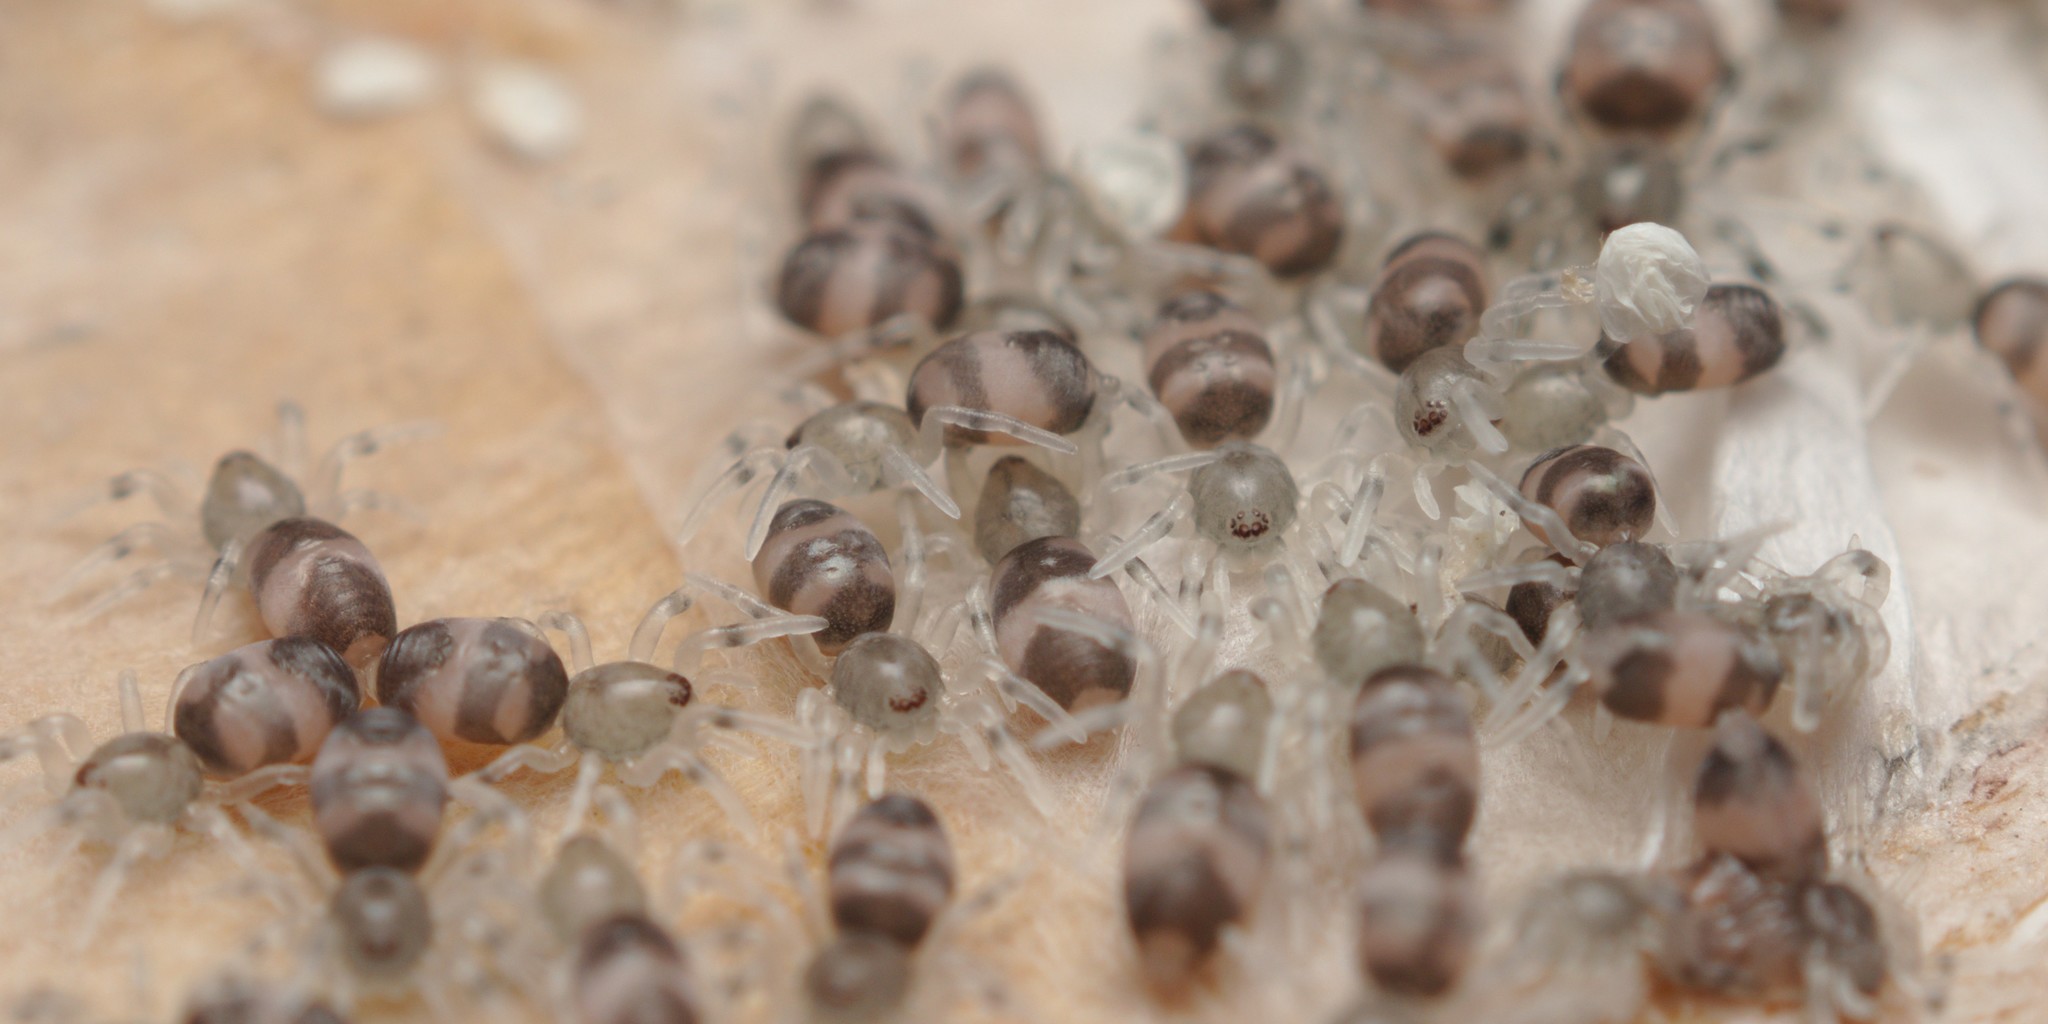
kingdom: Animalia
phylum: Arthropoda
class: Arachnida
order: Araneae
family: Lamponidae
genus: Lampona
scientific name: Lampona murina
